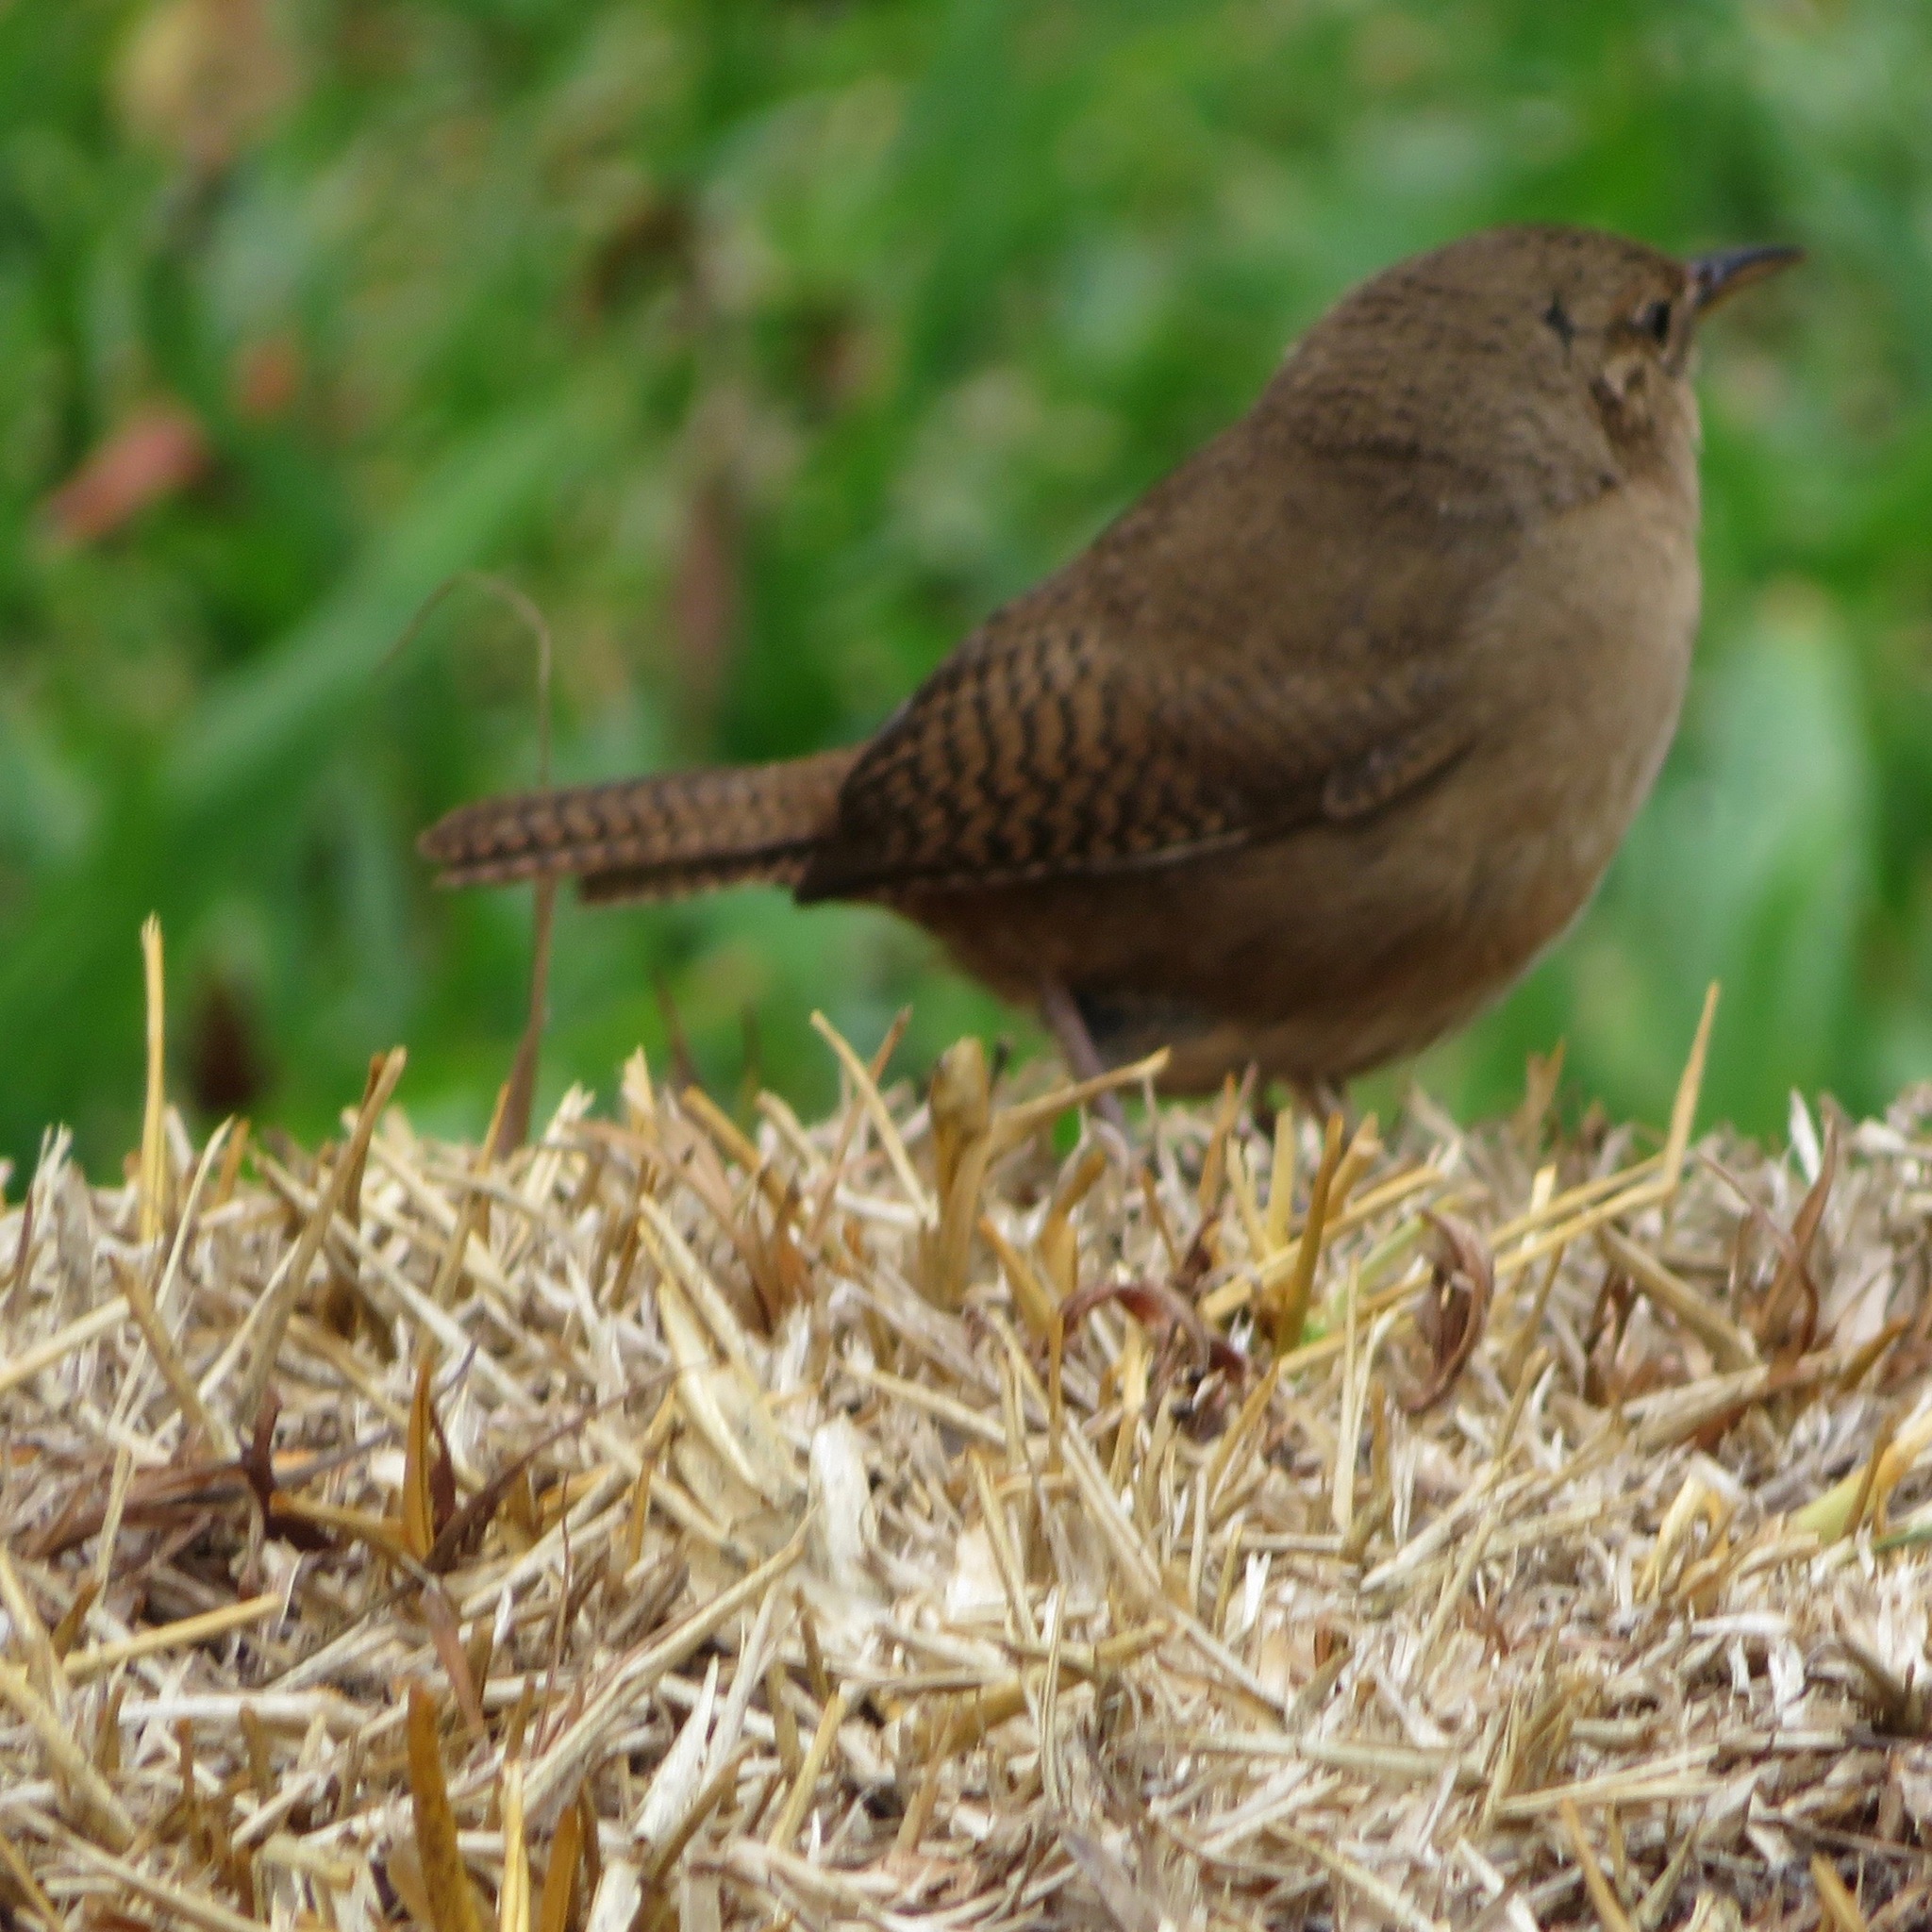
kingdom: Animalia
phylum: Chordata
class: Aves
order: Passeriformes
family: Troglodytidae
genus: Troglodytes
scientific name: Troglodytes aedon
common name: House wren
